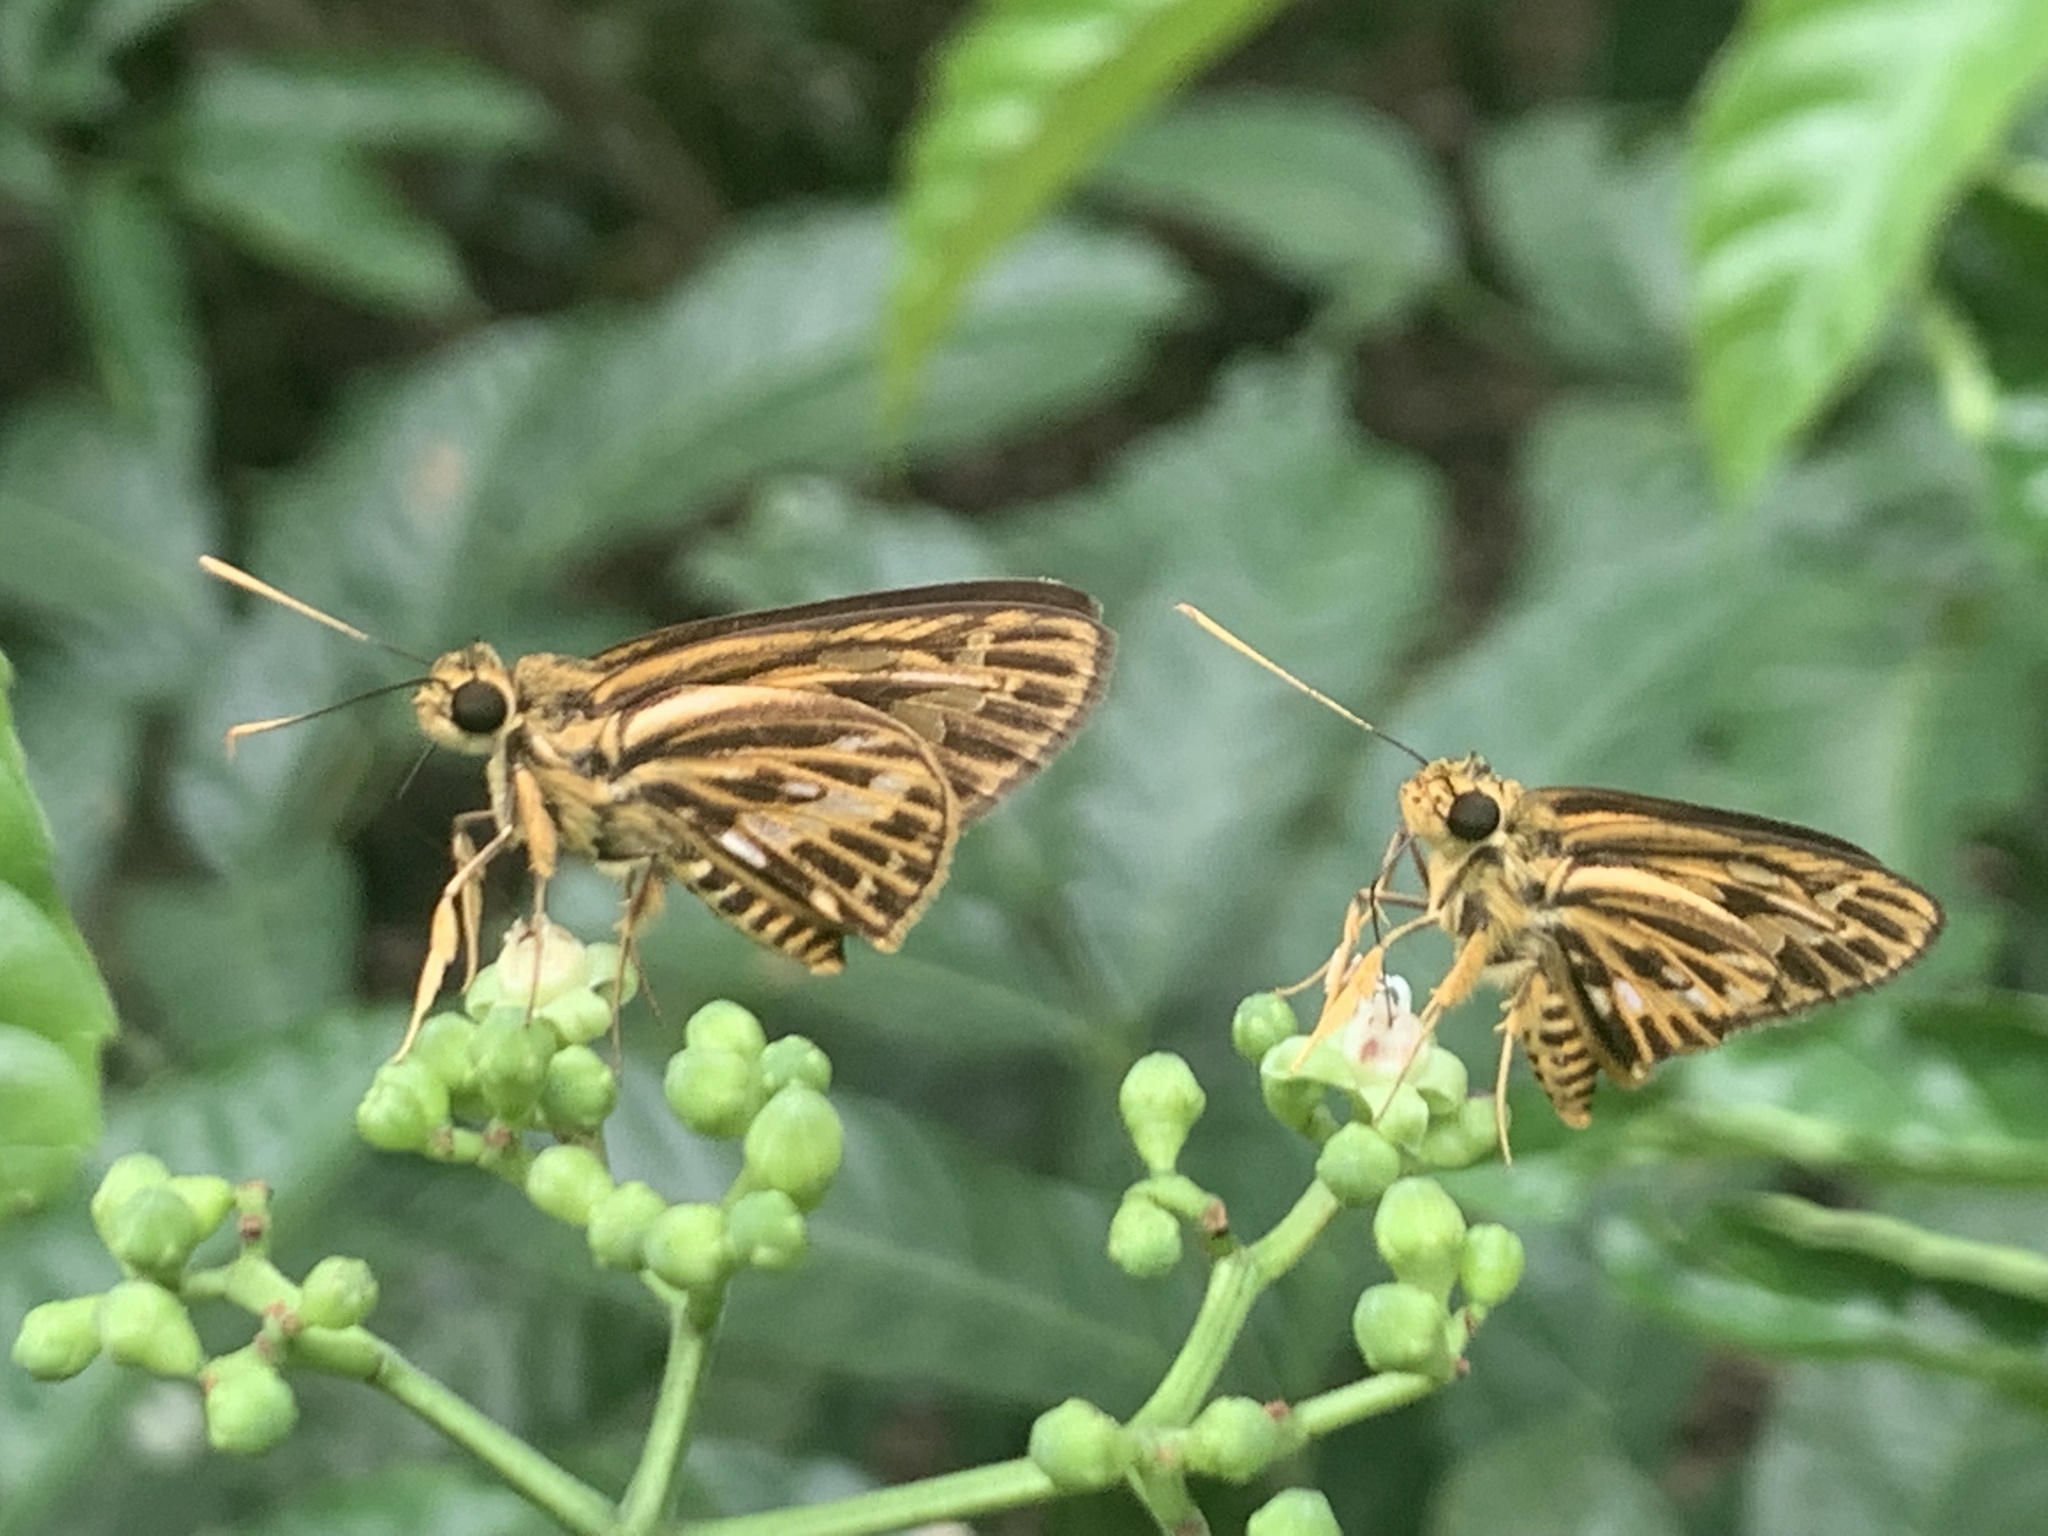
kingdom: Animalia
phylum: Arthropoda
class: Insecta
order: Lepidoptera
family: Hesperiidae
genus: Pyroneura
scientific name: Pyroneura latoia
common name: Yellow vein lancer
